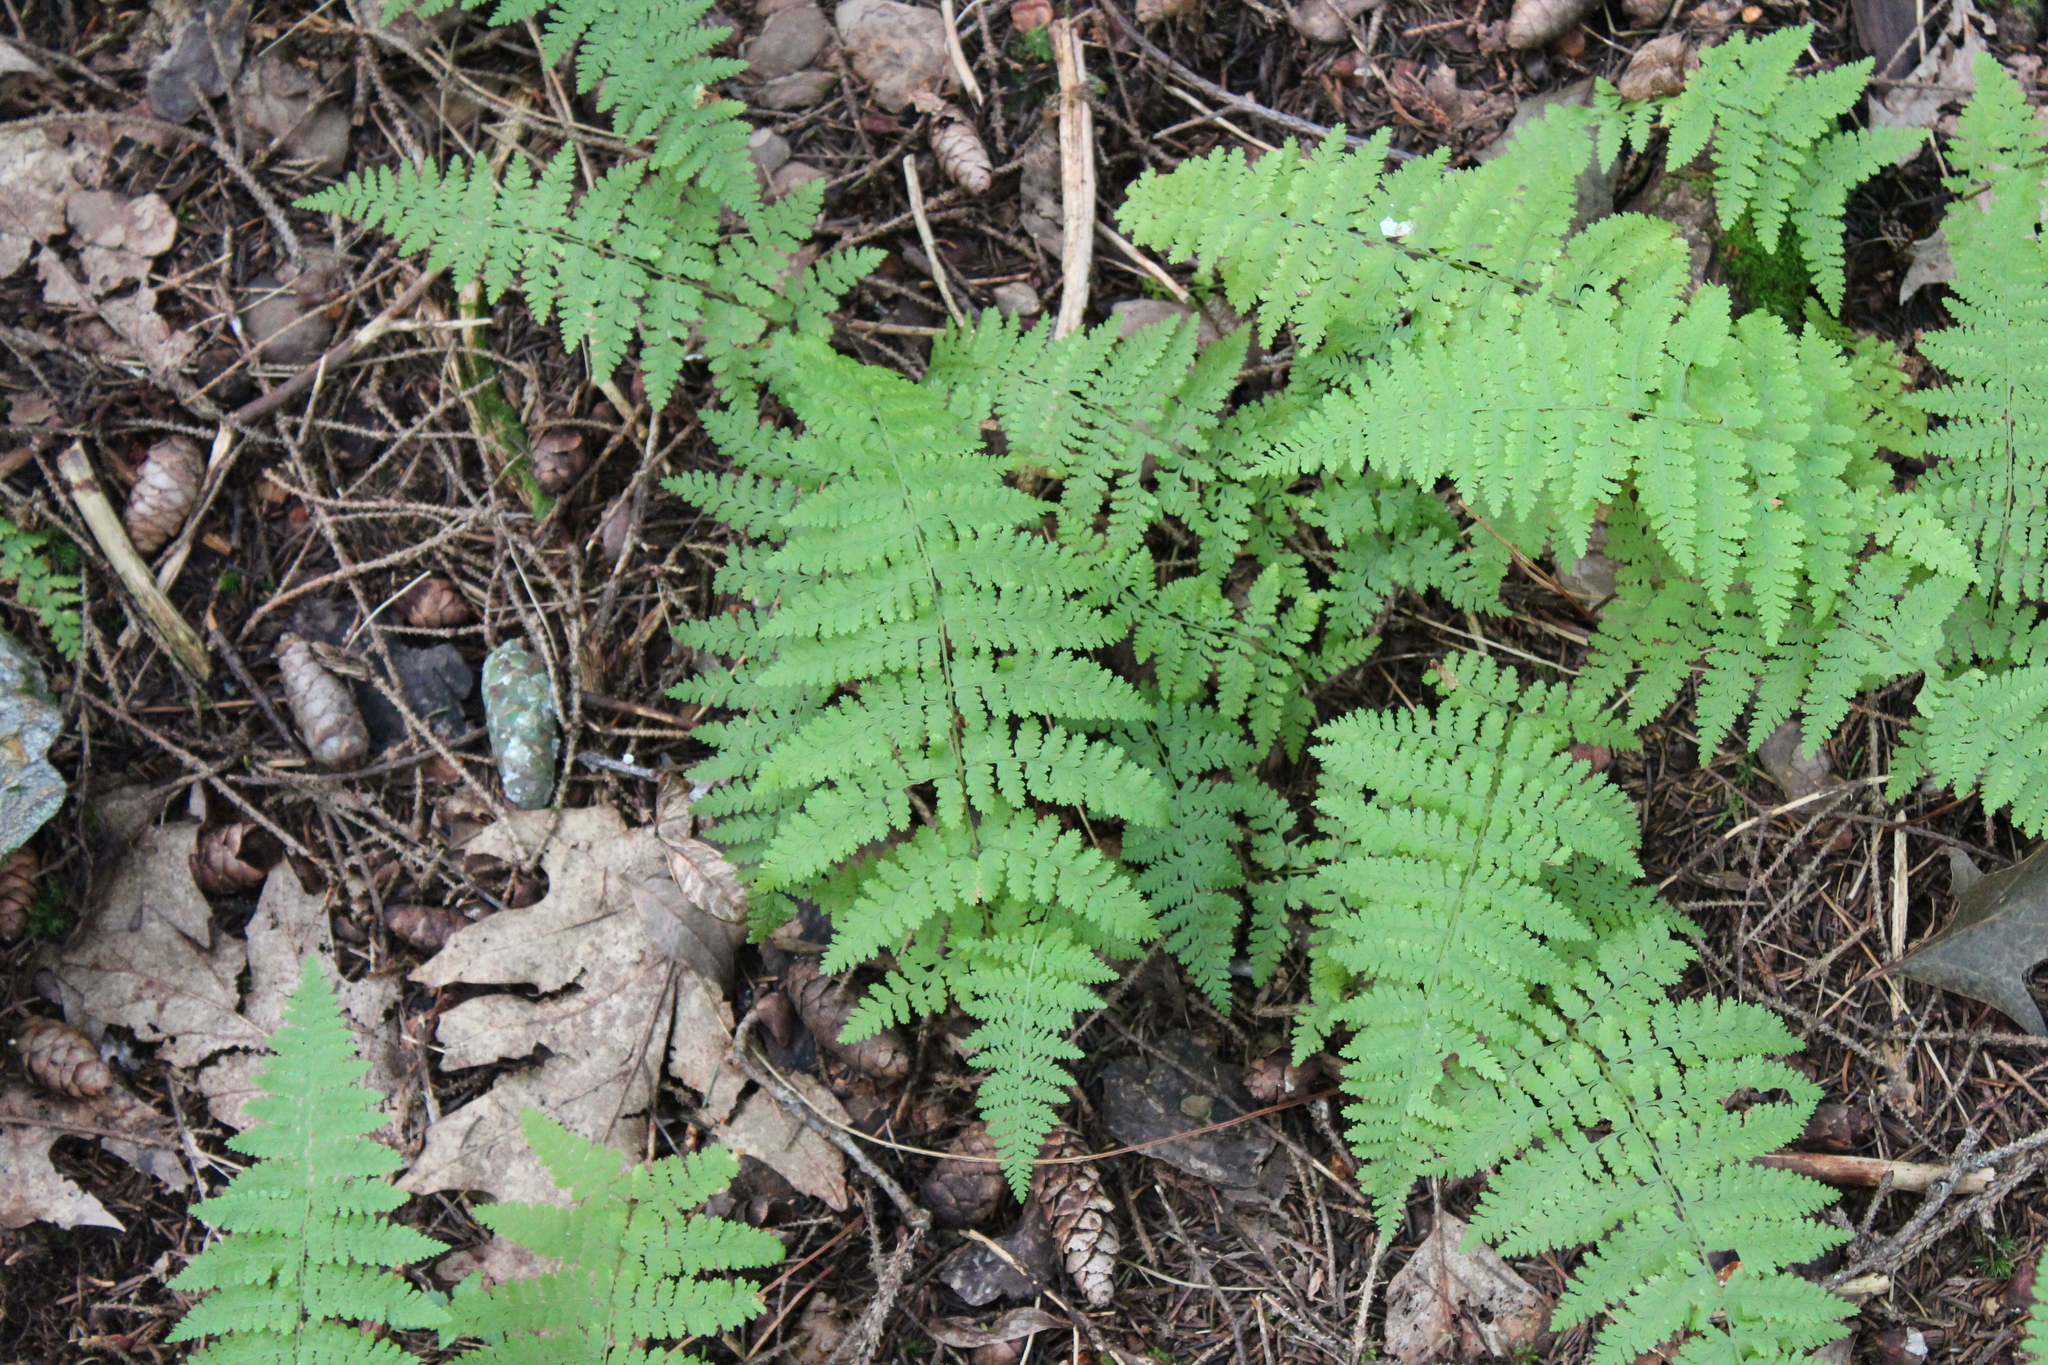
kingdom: Plantae
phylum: Tracheophyta
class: Polypodiopsida
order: Polypodiales
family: Dennstaedtiaceae
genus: Sitobolium
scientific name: Sitobolium punctilobum
